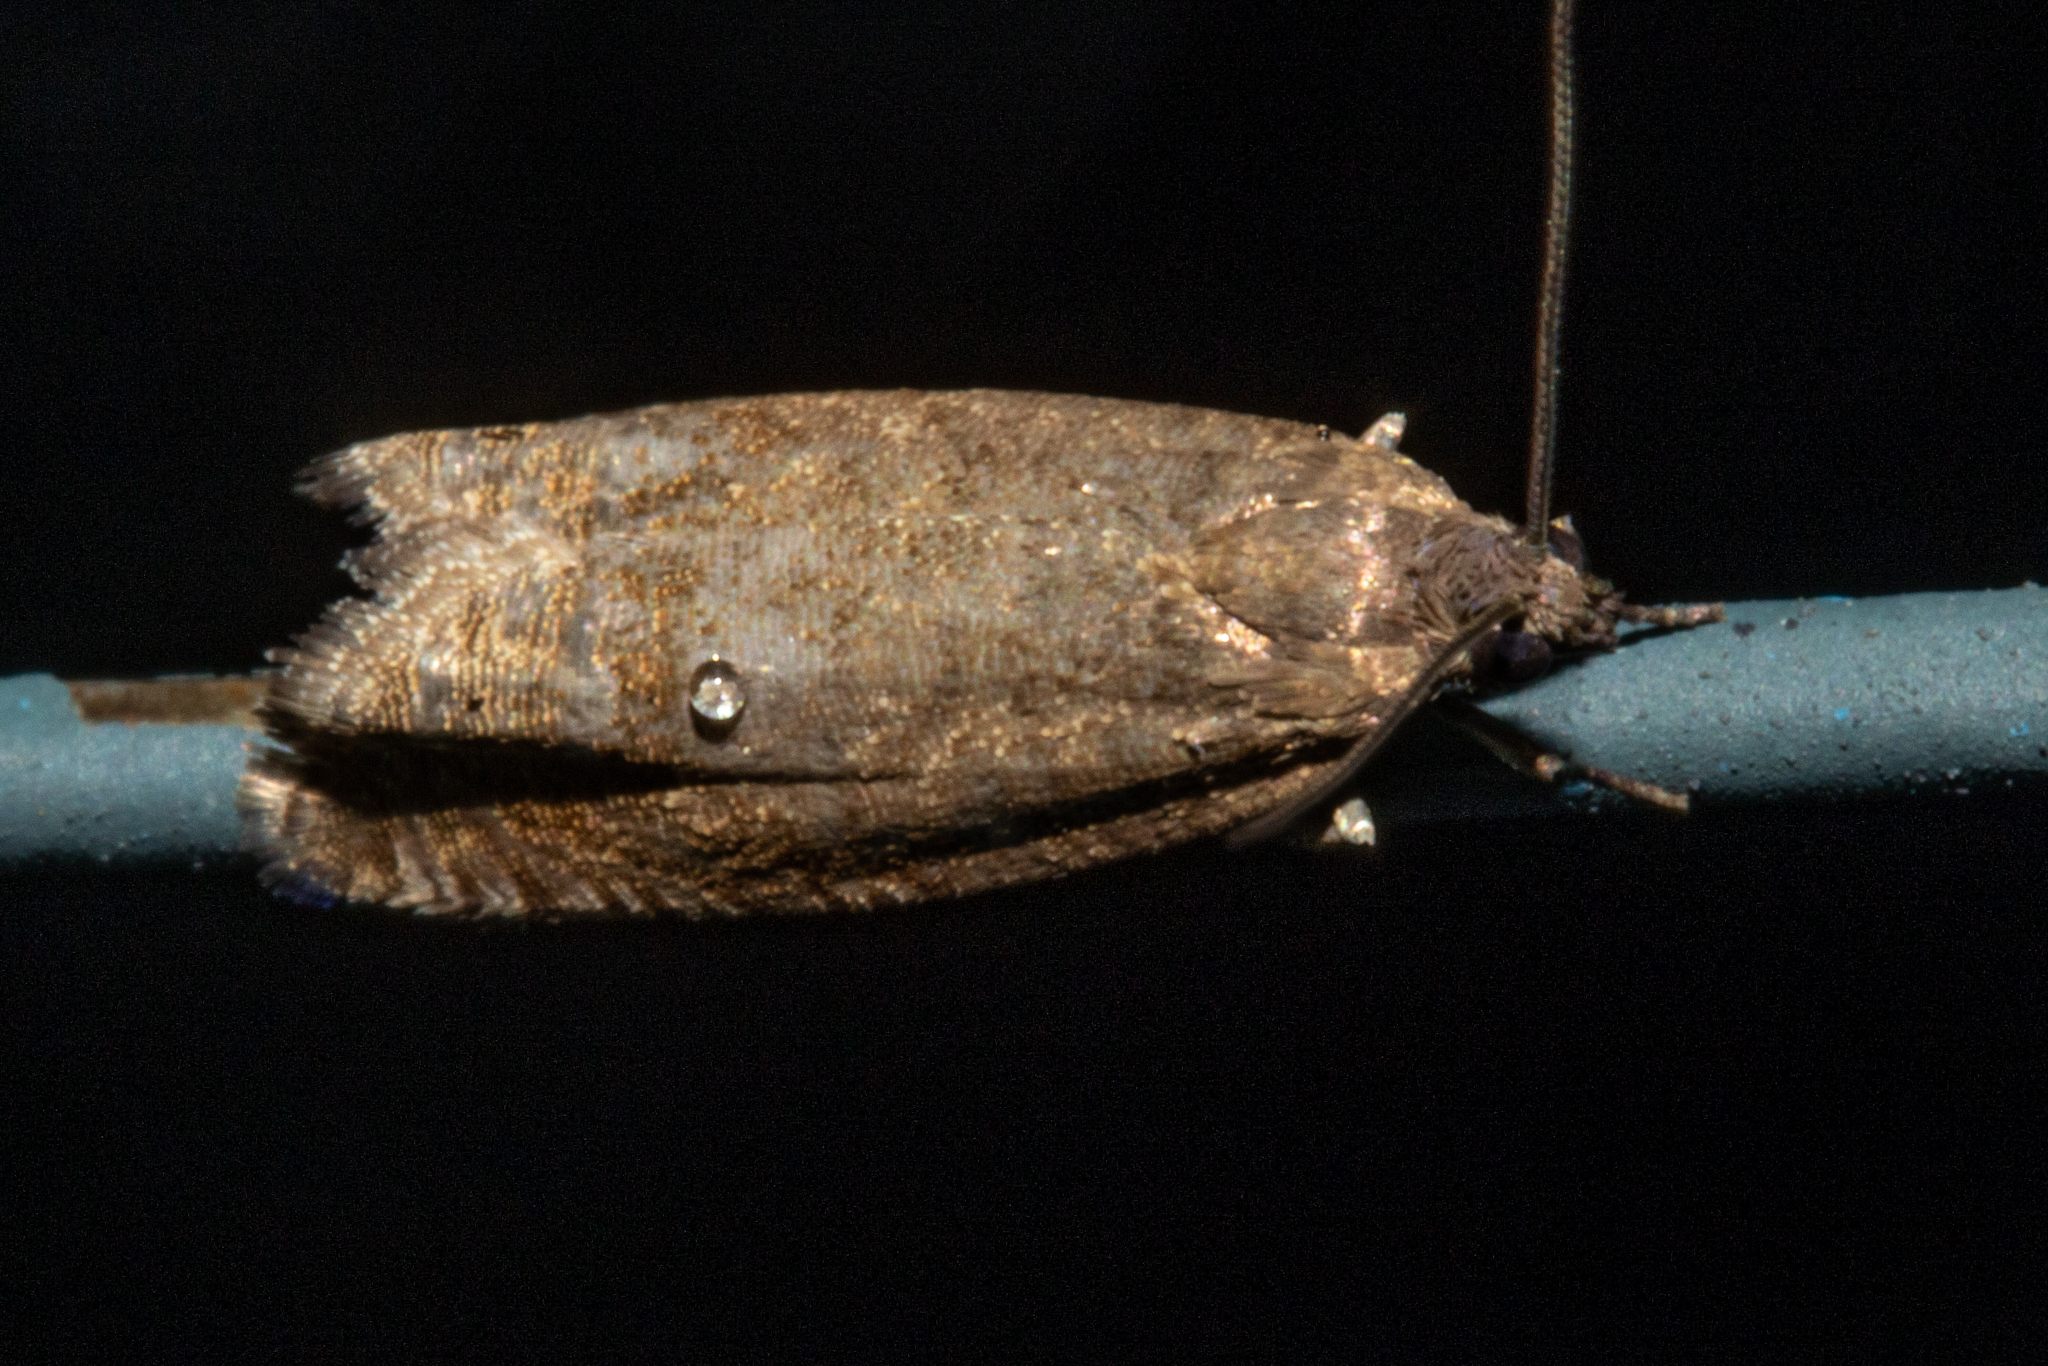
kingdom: Animalia
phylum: Arthropoda
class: Insecta
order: Lepidoptera
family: Tortricidae
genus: Cydia
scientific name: Cydia succedana
